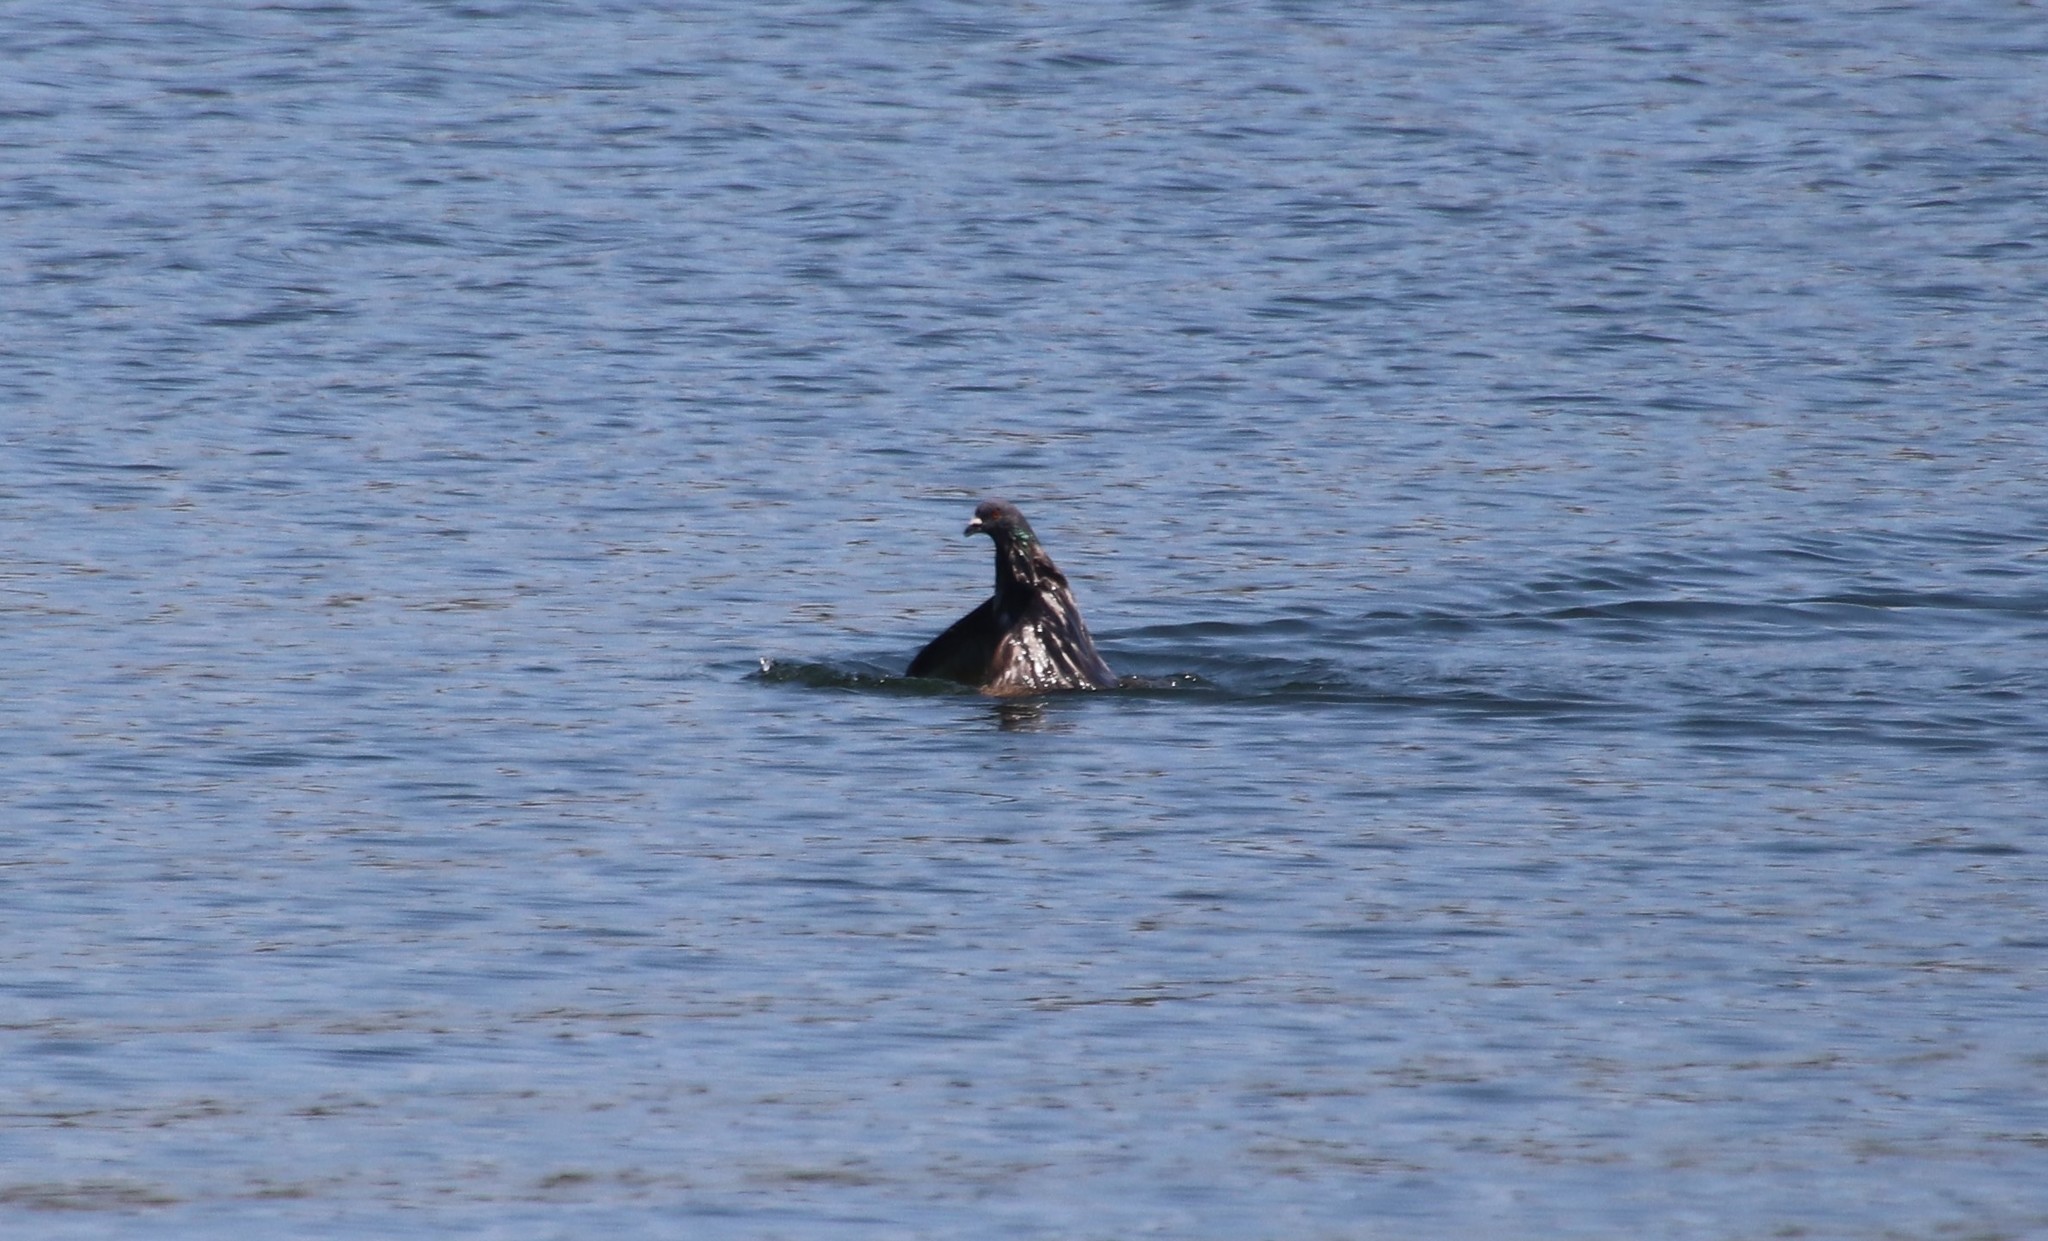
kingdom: Animalia
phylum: Chordata
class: Aves
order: Columbiformes
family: Columbidae
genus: Columba
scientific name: Columba livia
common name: Rock pigeon
